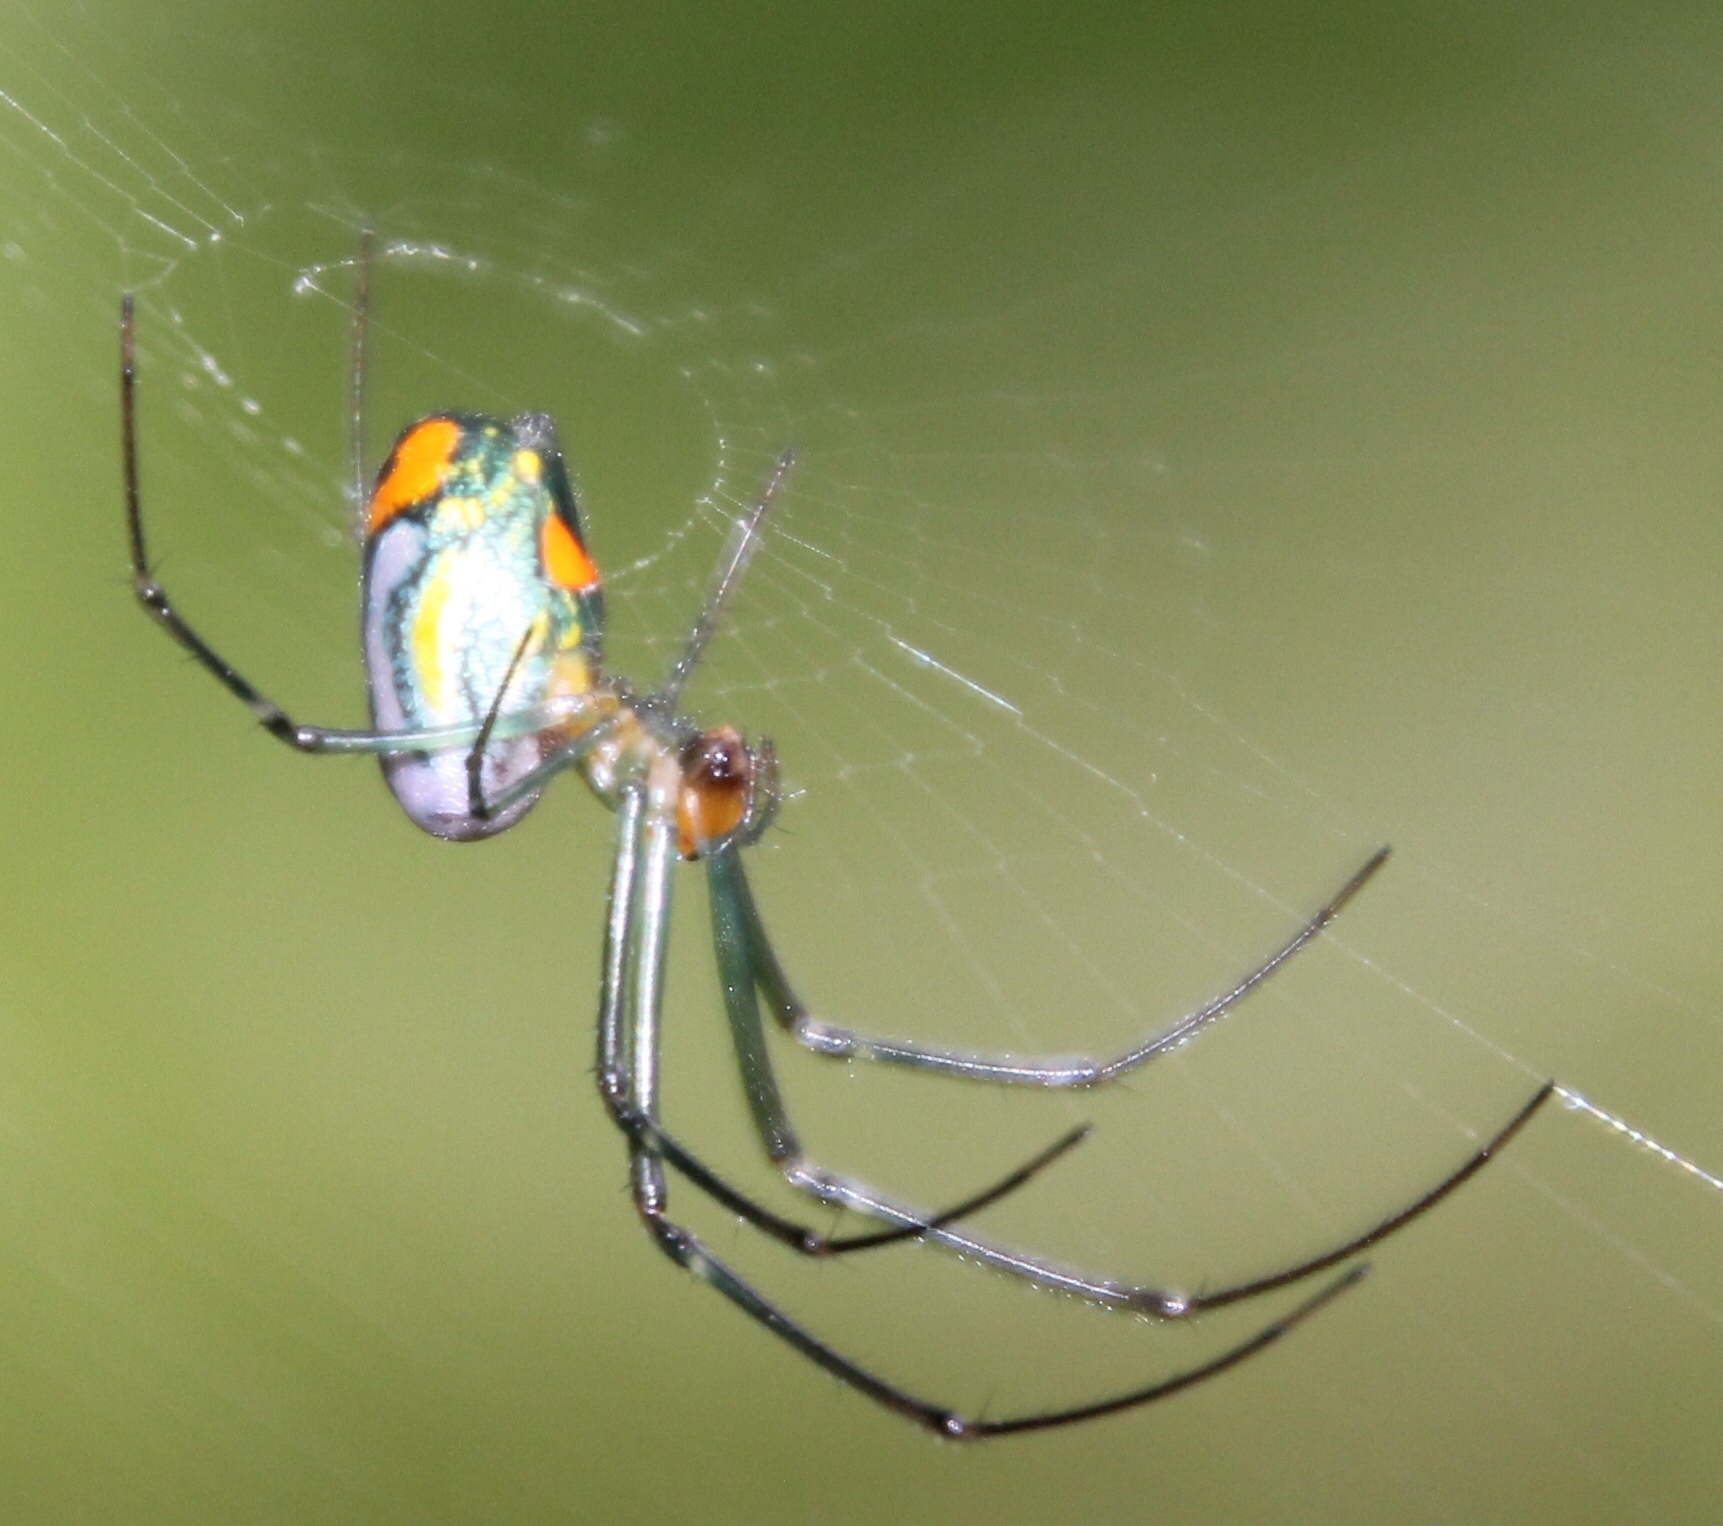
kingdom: Animalia
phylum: Arthropoda
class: Arachnida
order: Araneae
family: Tetragnathidae
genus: Leucauge
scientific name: Leucauge argyrobapta
